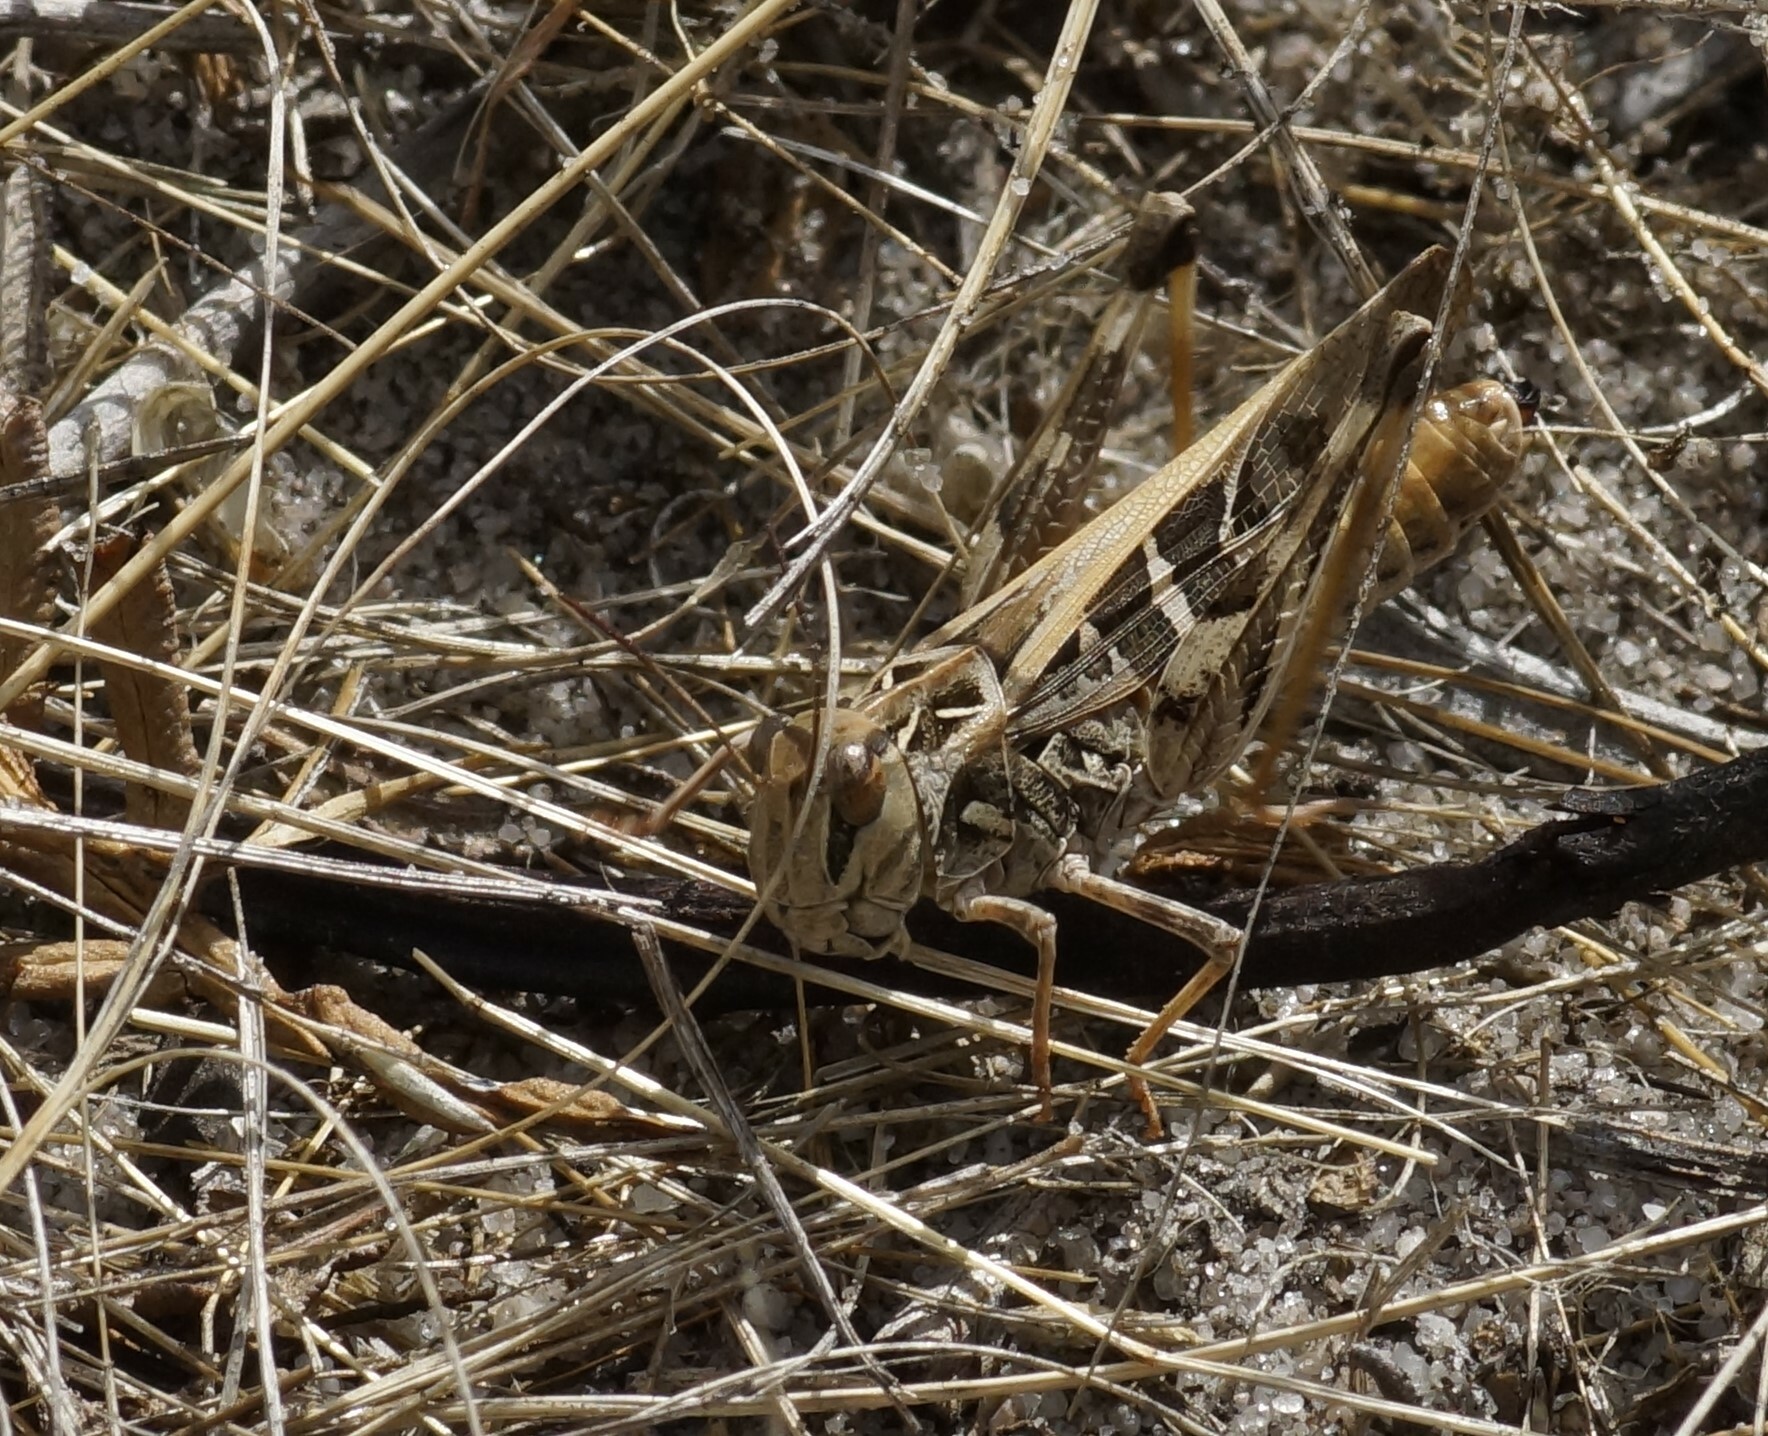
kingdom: Animalia
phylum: Arthropoda
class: Insecta
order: Orthoptera
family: Acrididae
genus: Oedaleus
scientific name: Oedaleus australis
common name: Eastern oedaleus
